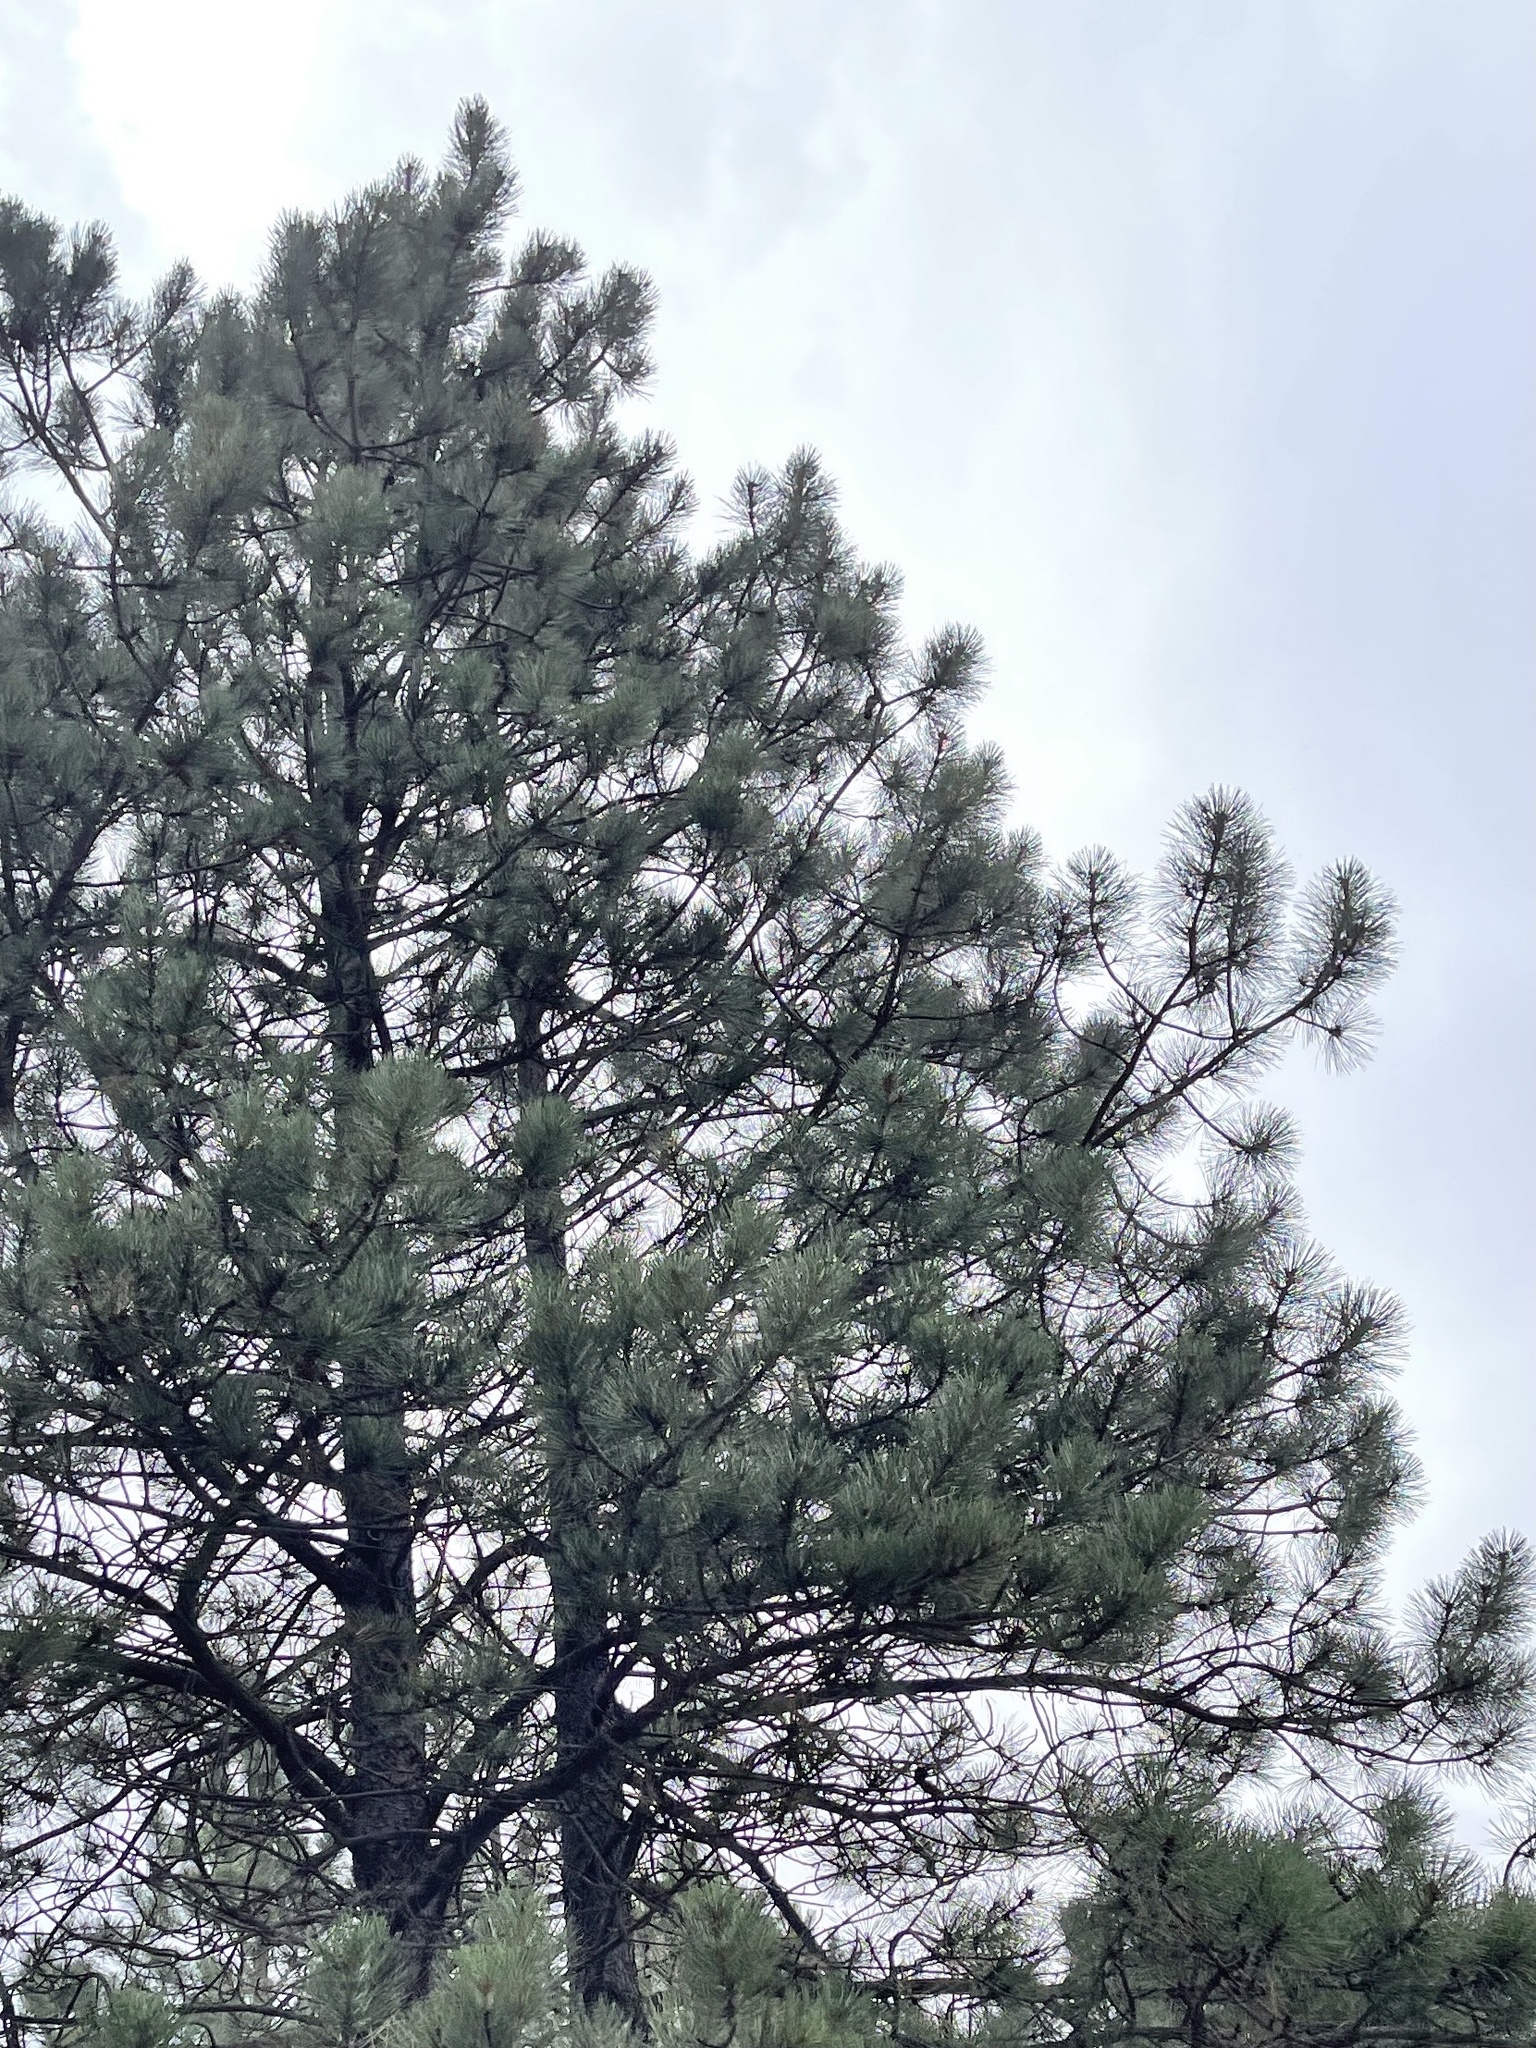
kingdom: Plantae
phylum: Tracheophyta
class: Pinopsida
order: Pinales
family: Pinaceae
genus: Pinus
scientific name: Pinus ponderosa
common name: Western yellow-pine
